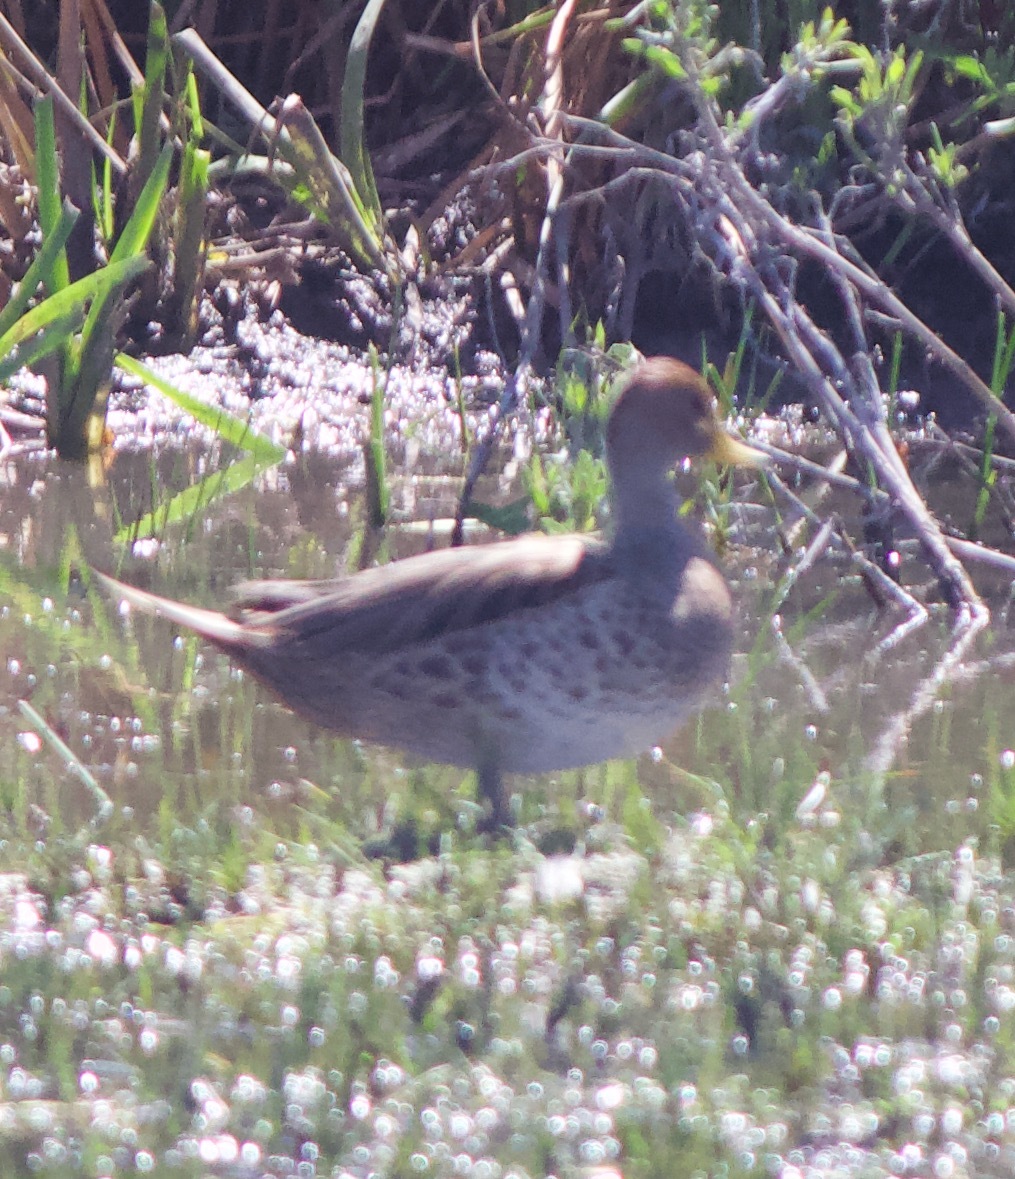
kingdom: Animalia
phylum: Chordata
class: Aves
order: Anseriformes
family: Anatidae
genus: Anas
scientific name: Anas georgica
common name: Yellow-billed pintail
